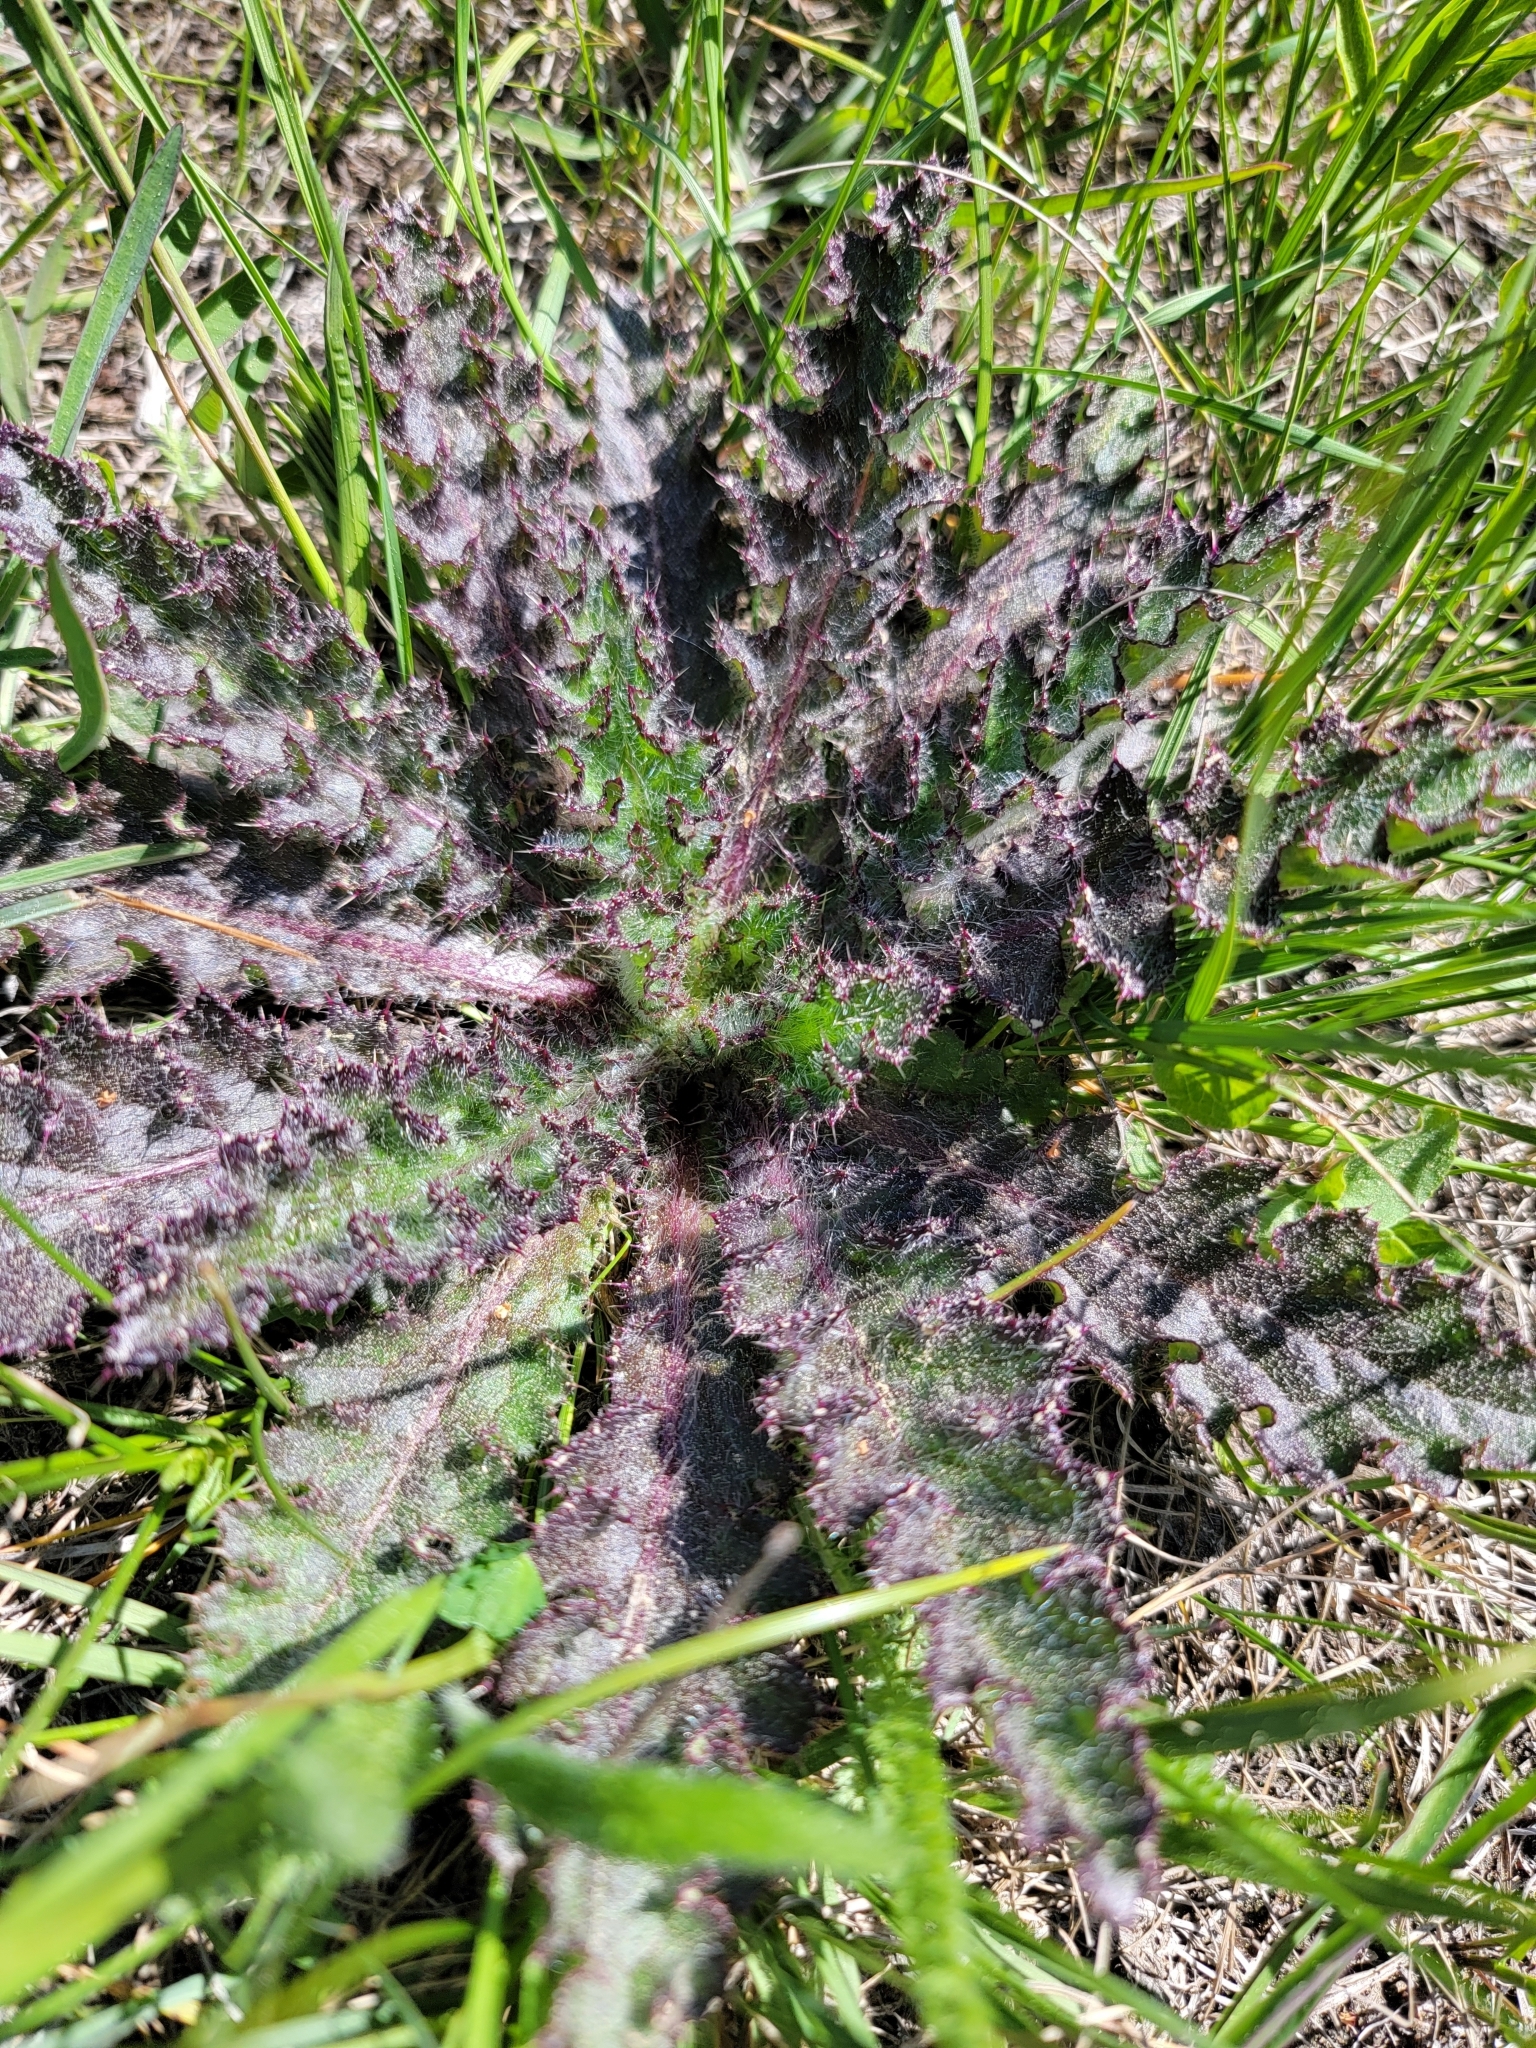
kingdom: Plantae
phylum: Tracheophyta
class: Magnoliopsida
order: Asterales
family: Asteraceae
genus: Cirsium
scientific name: Cirsium drummondii
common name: Drummond's thistle
